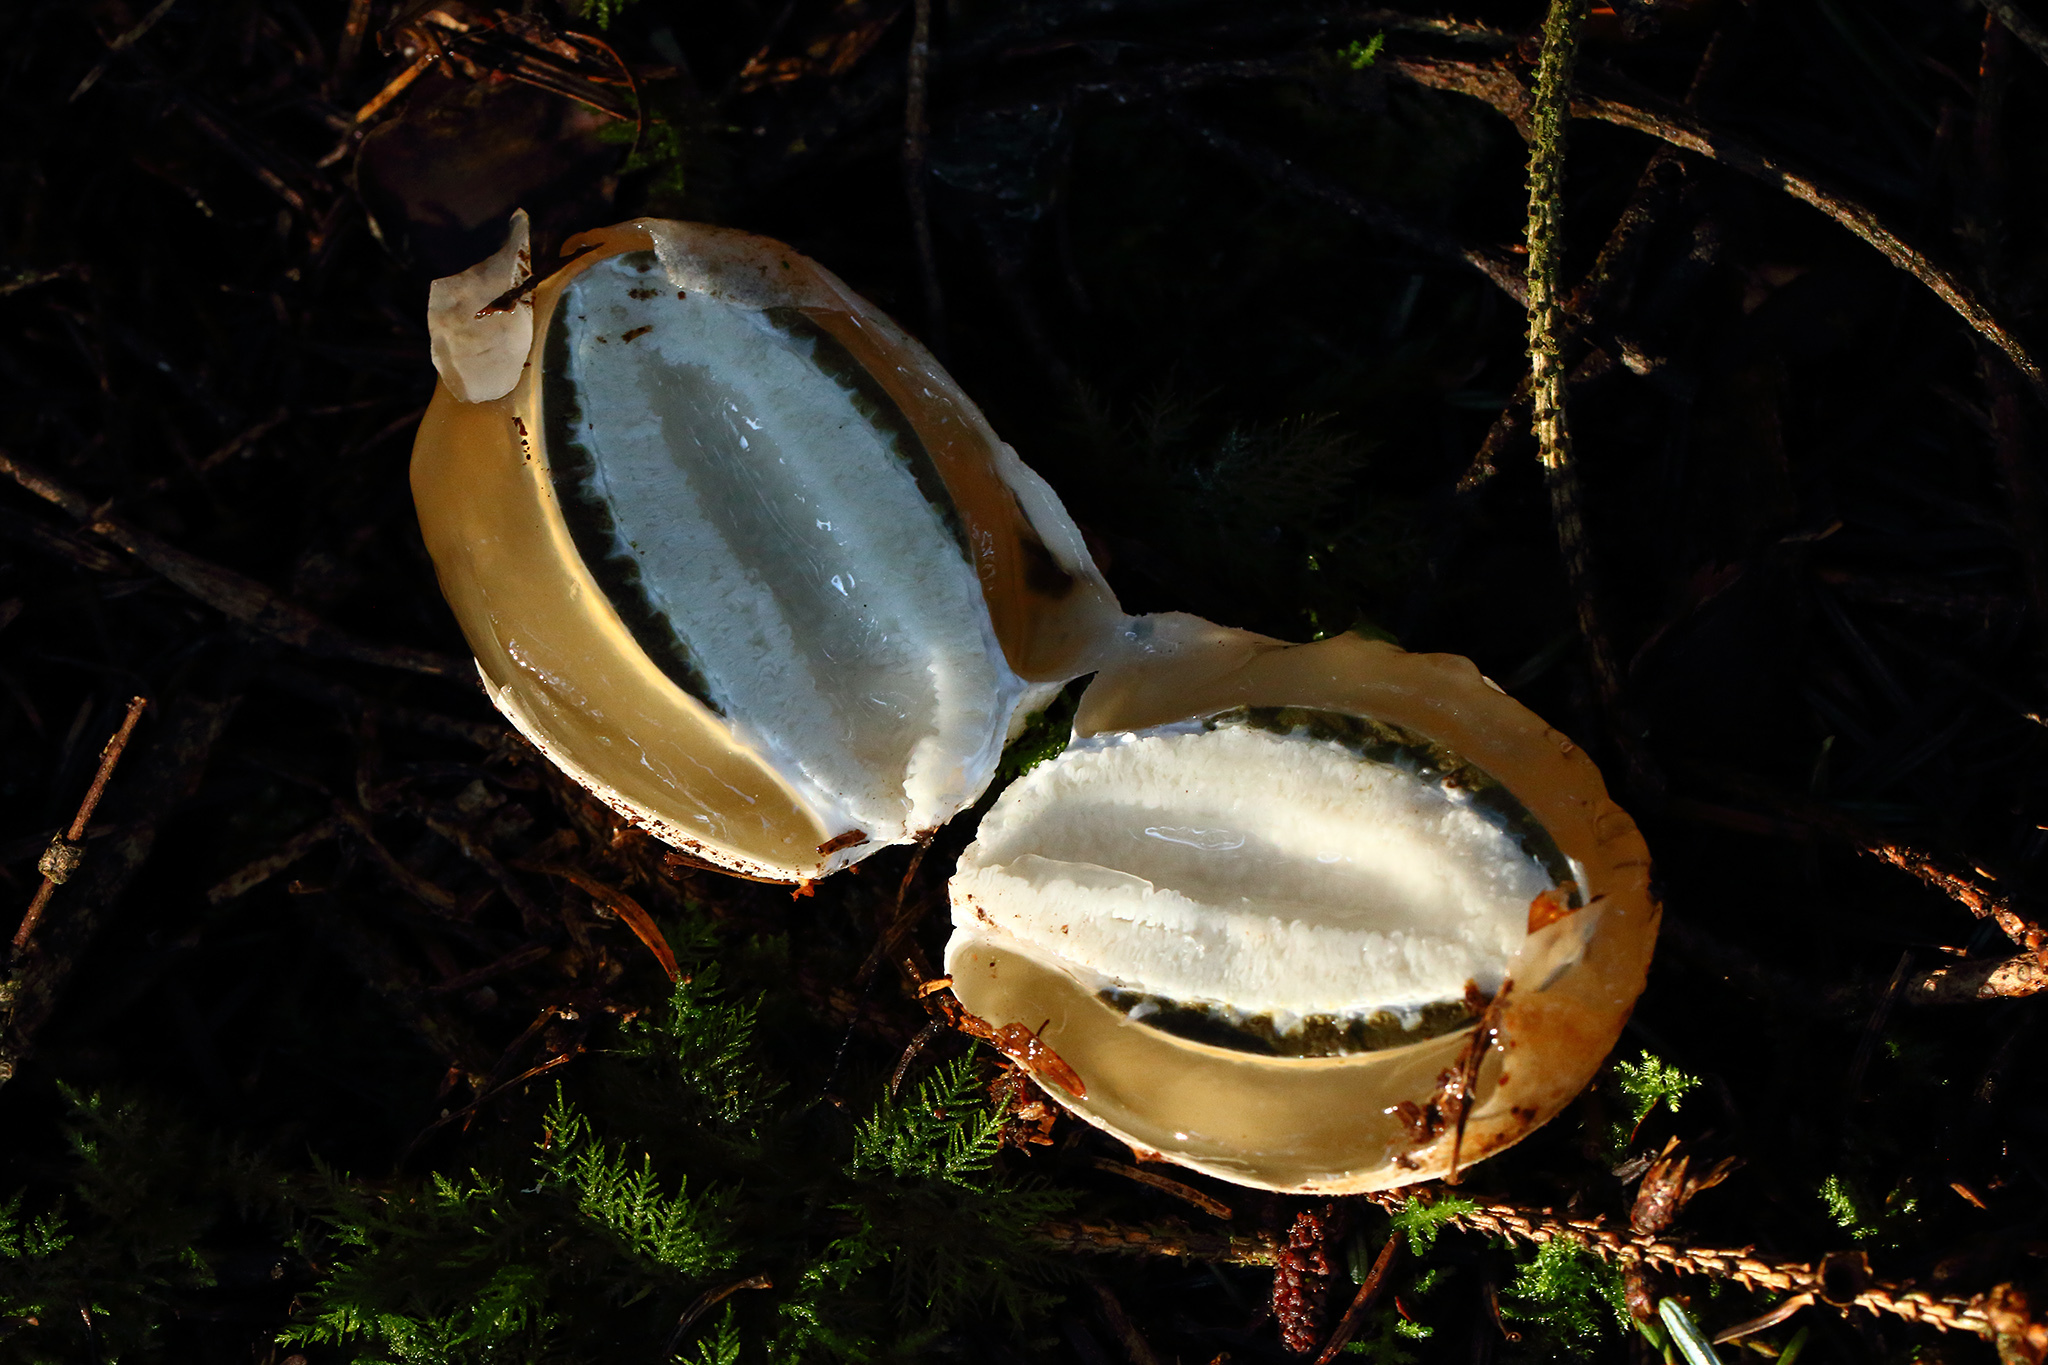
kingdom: Fungi
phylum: Basidiomycota
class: Agaricomycetes
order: Phallales
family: Phallaceae
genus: Phallus
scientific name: Phallus impudicus
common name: Common stinkhorn
